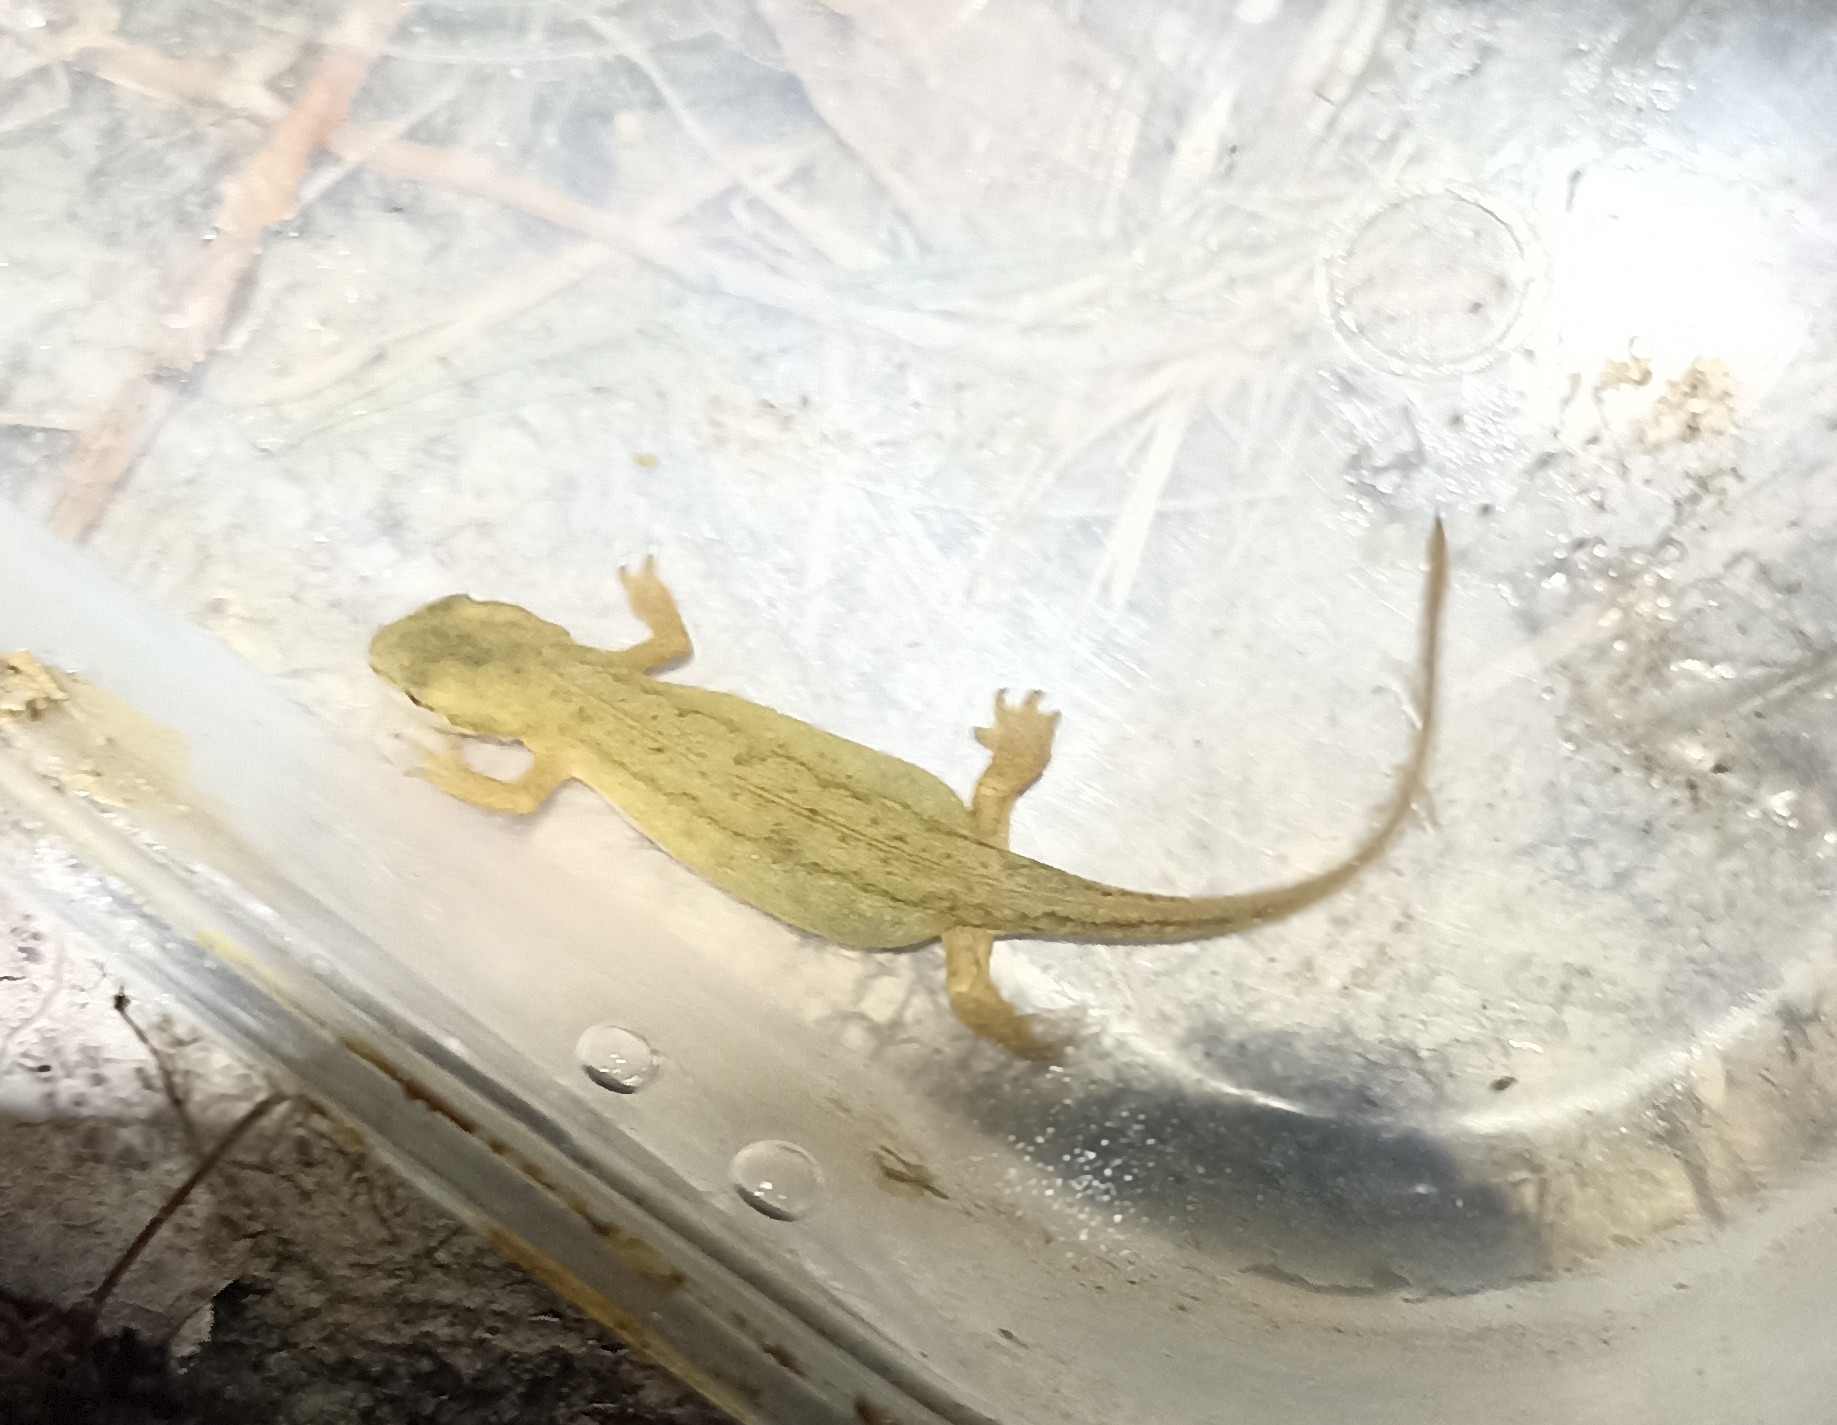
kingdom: Animalia
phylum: Chordata
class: Amphibia
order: Caudata
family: Salamandridae
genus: Lissotriton
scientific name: Lissotriton helveticus
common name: Palmate newt
